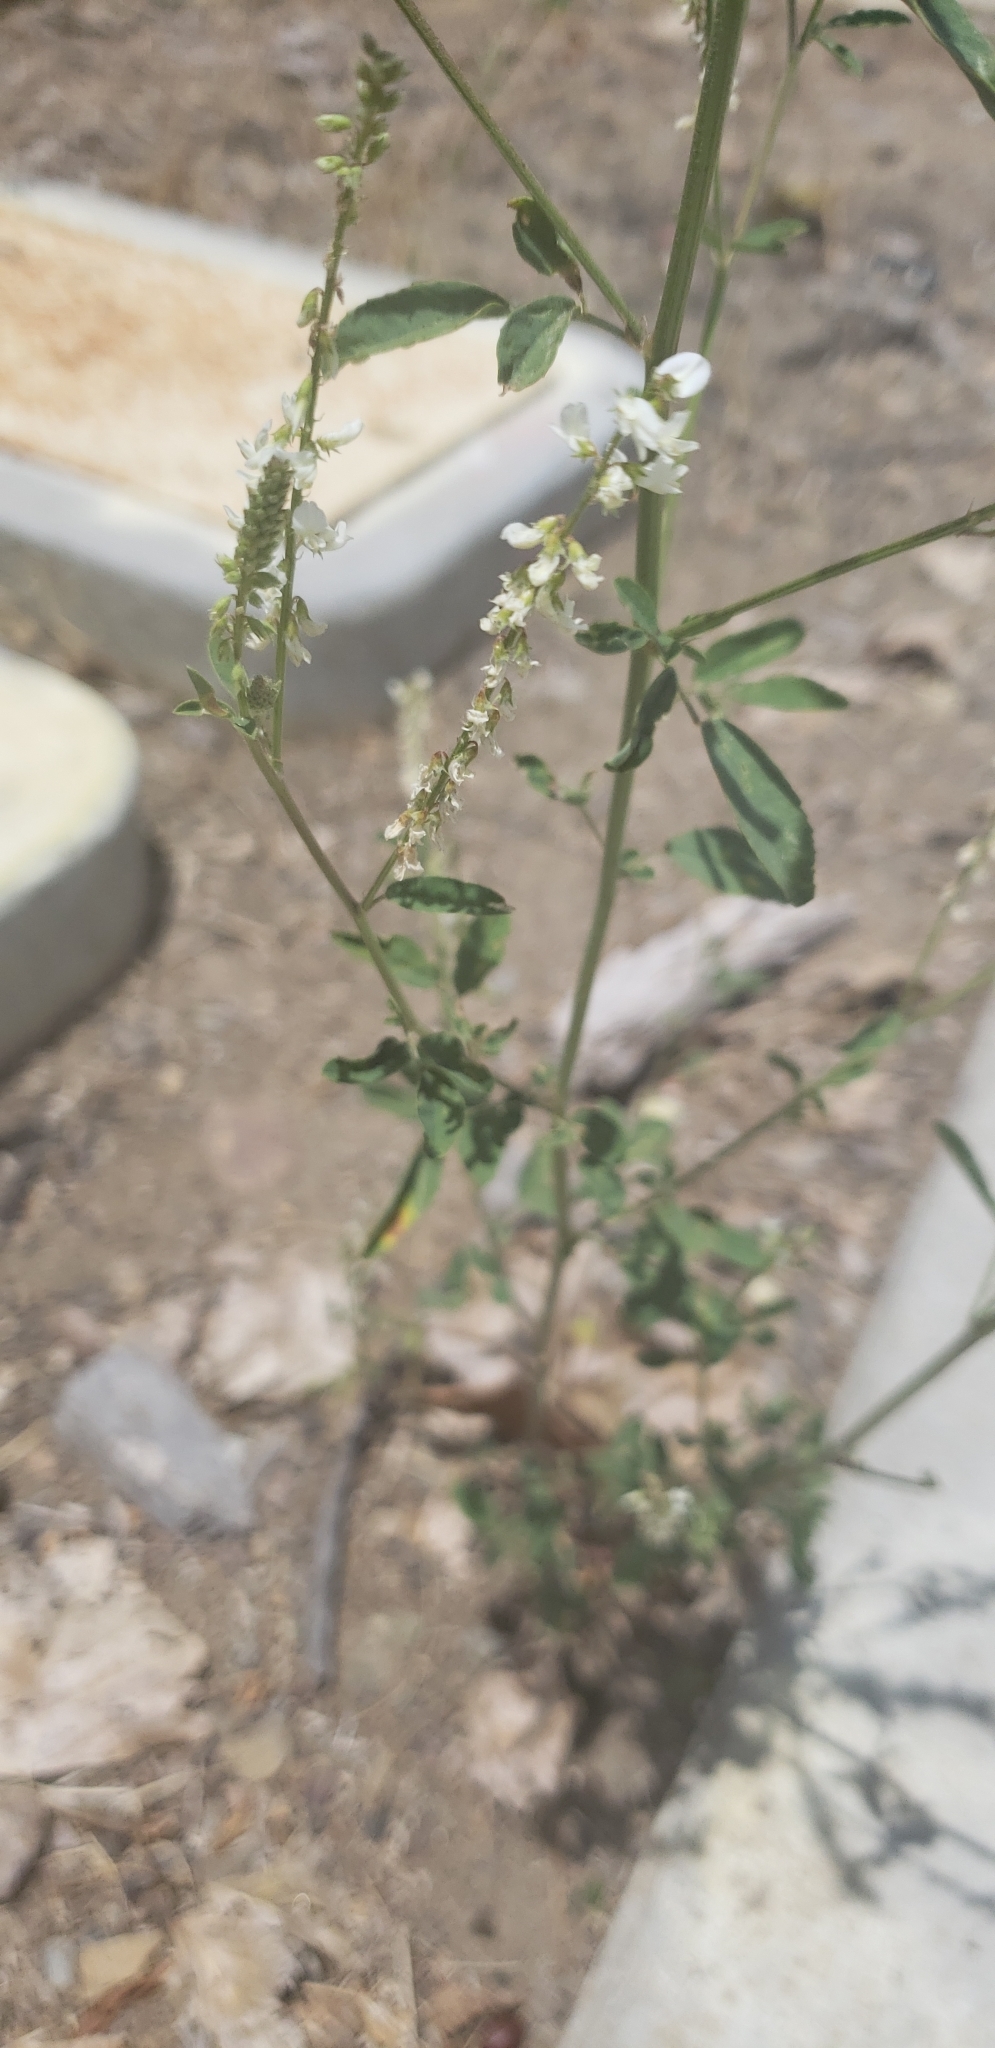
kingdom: Plantae
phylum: Tracheophyta
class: Magnoliopsida
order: Fabales
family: Fabaceae
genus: Melilotus
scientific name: Melilotus albus
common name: White melilot
